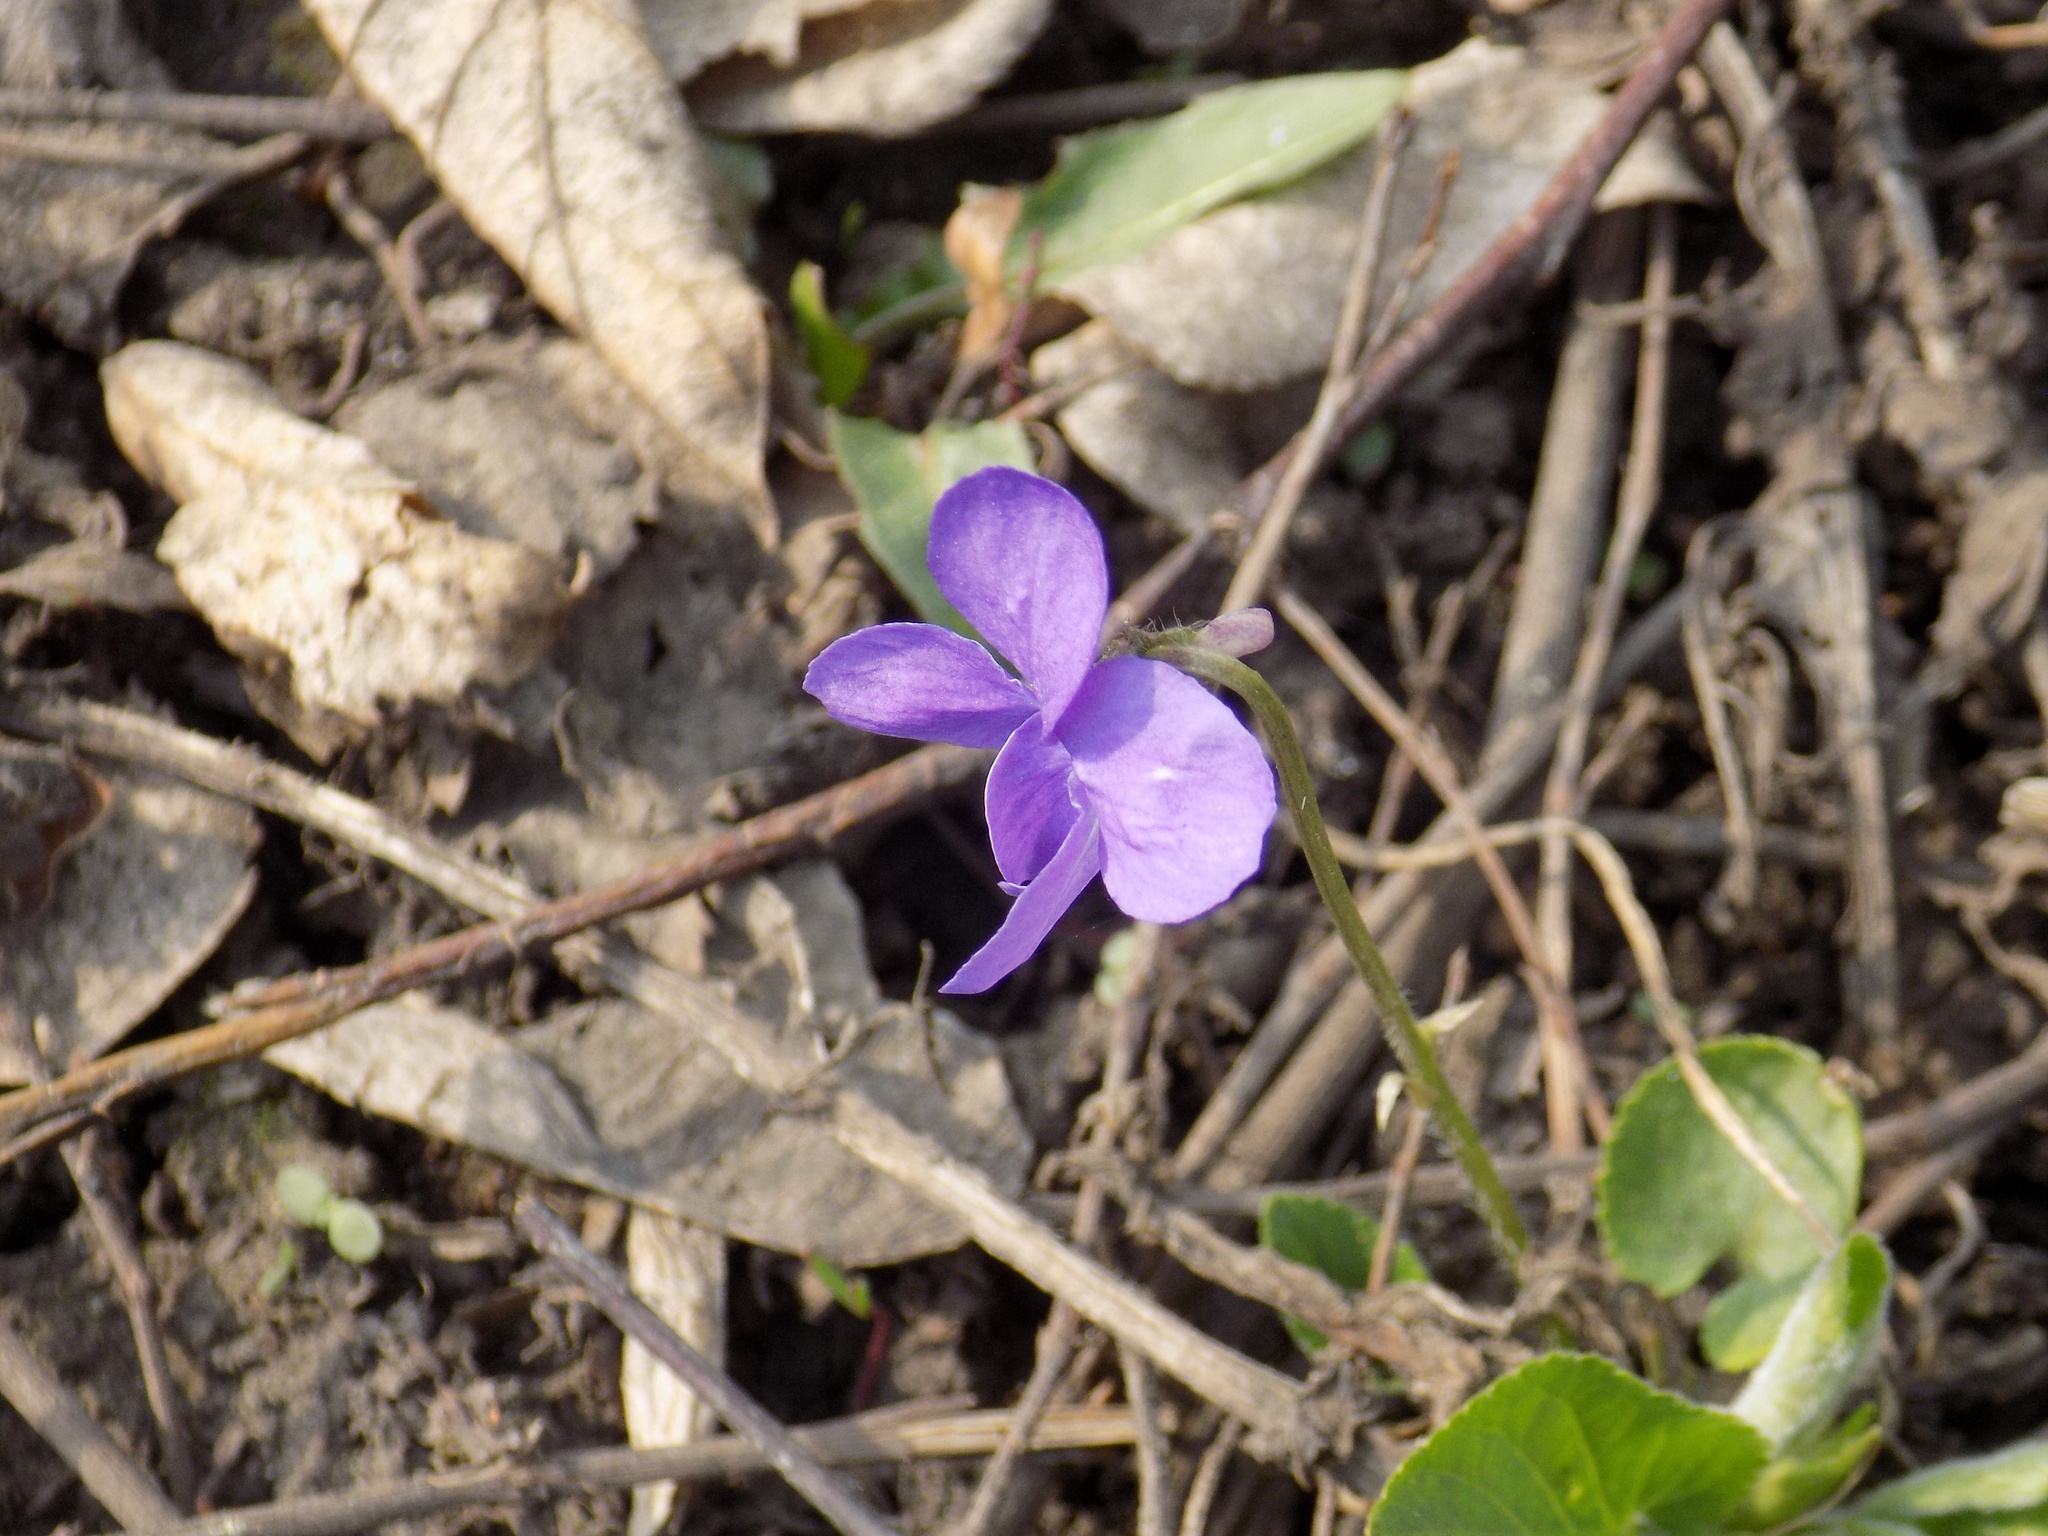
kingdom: Plantae
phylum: Tracheophyta
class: Magnoliopsida
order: Malpighiales
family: Violaceae
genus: Viola
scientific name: Viola hirta
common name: Hairy violet
